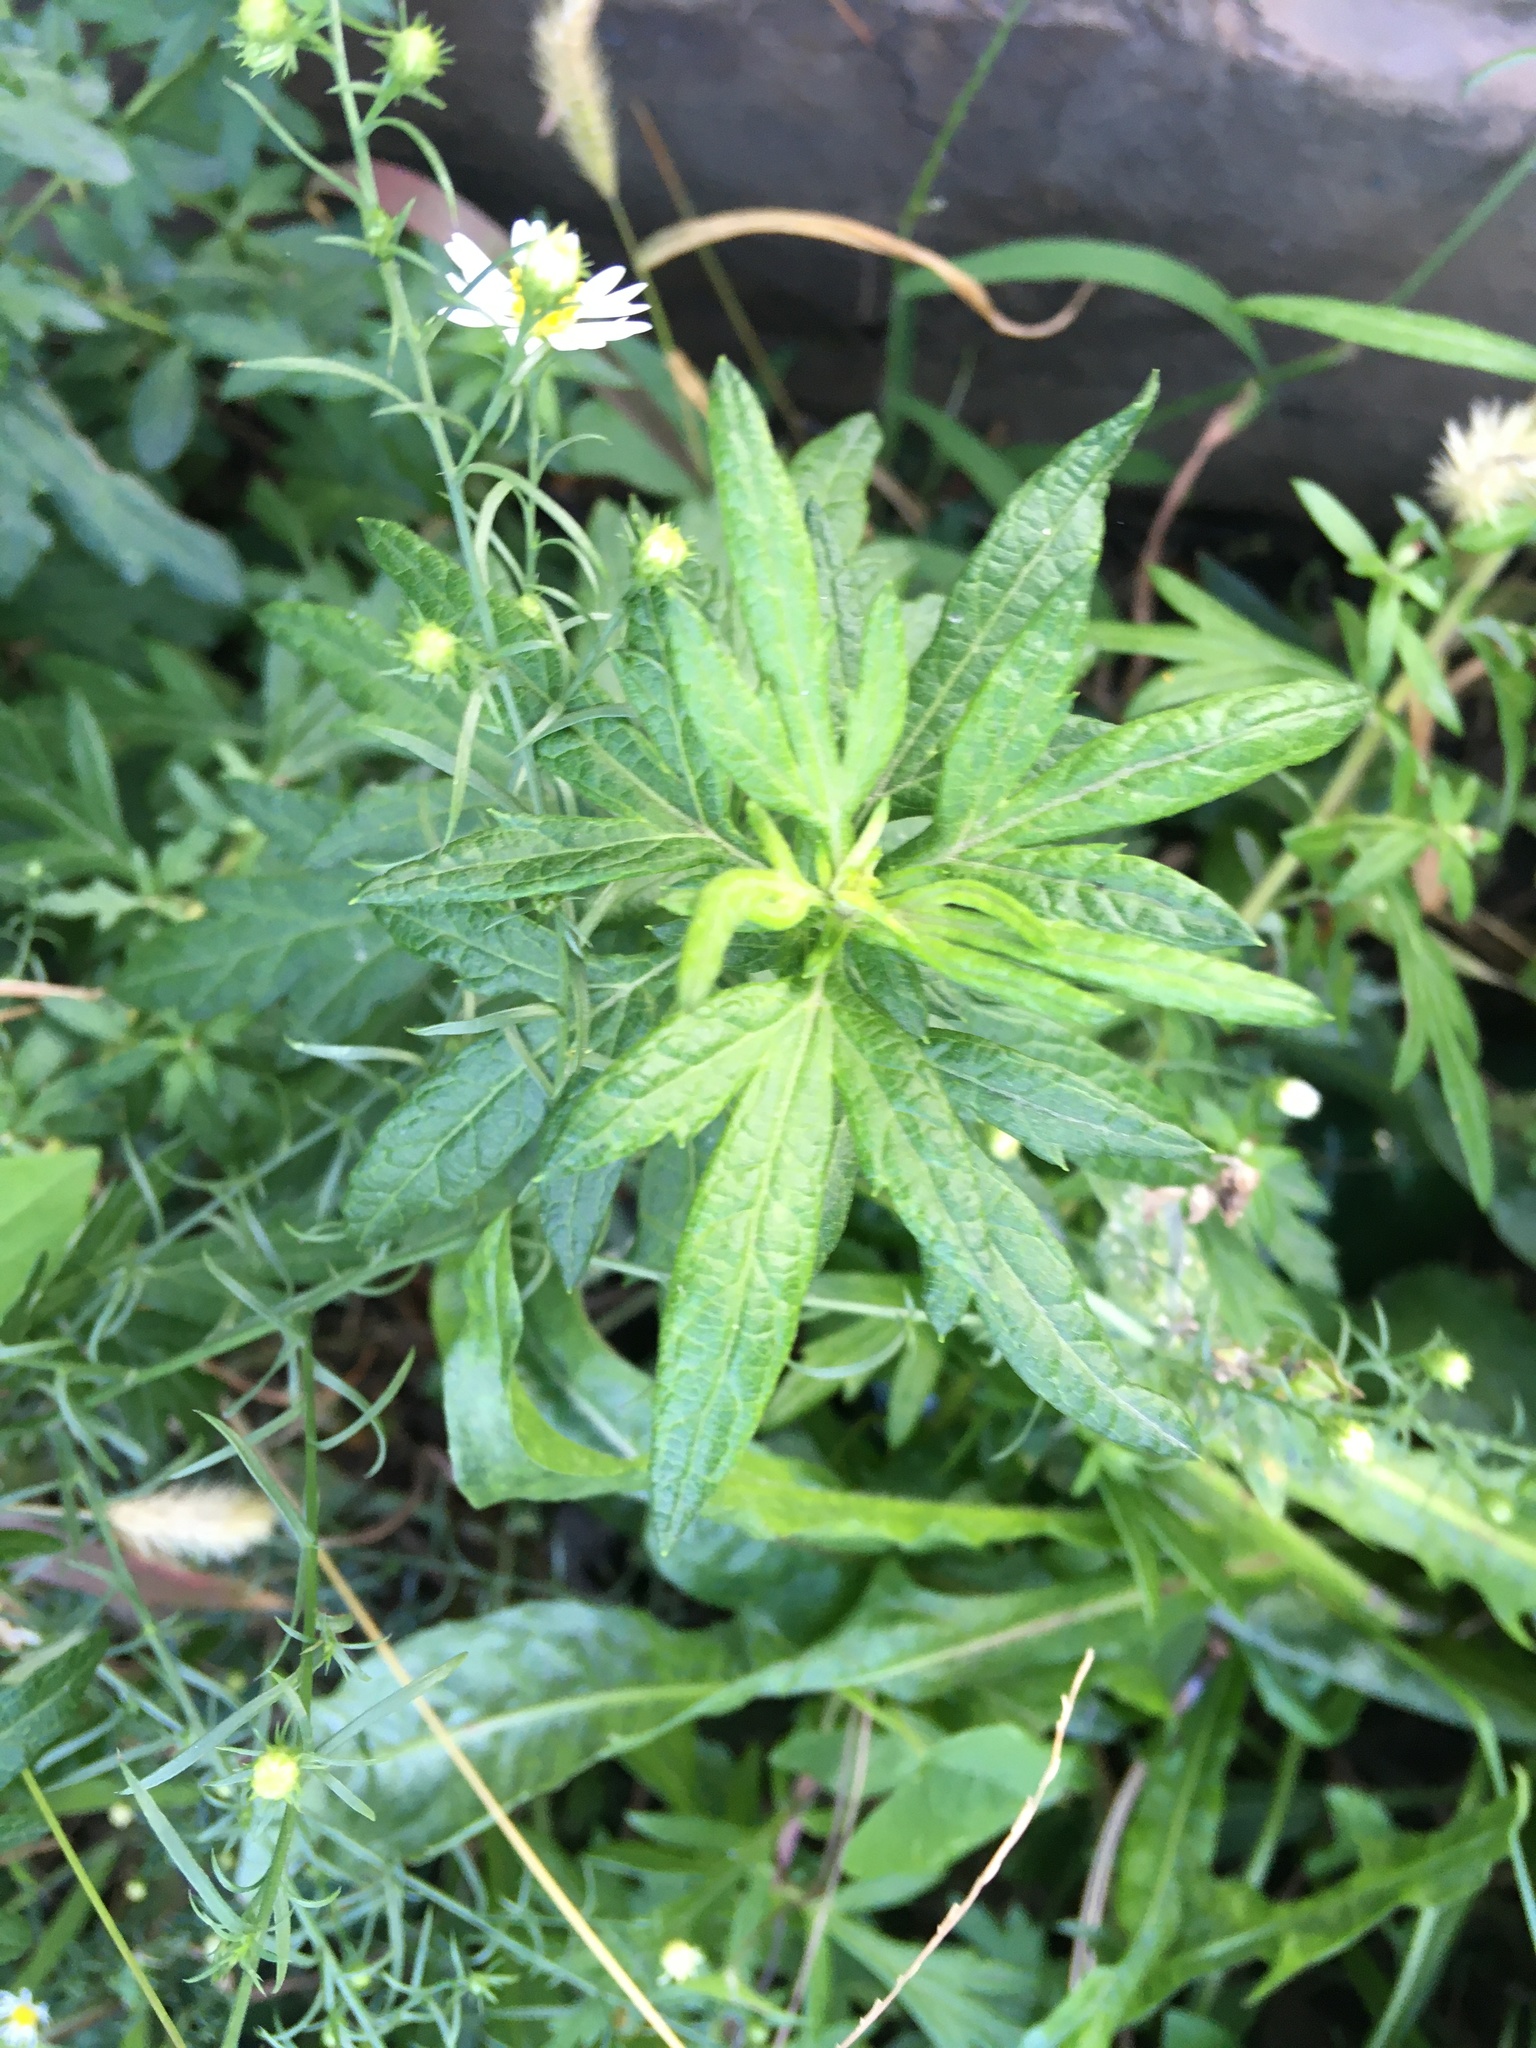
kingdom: Plantae
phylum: Tracheophyta
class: Magnoliopsida
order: Asterales
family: Asteraceae
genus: Artemisia
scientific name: Artemisia vulgaris
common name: Mugwort
